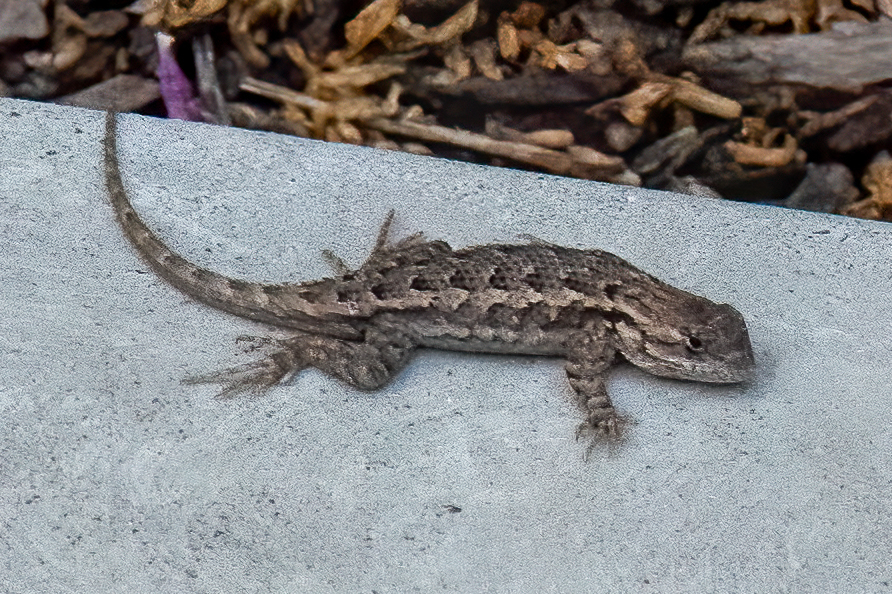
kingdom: Animalia
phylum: Chordata
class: Squamata
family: Phrynosomatidae
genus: Sceloporus
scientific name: Sceloporus occidentalis
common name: Western fence lizard
